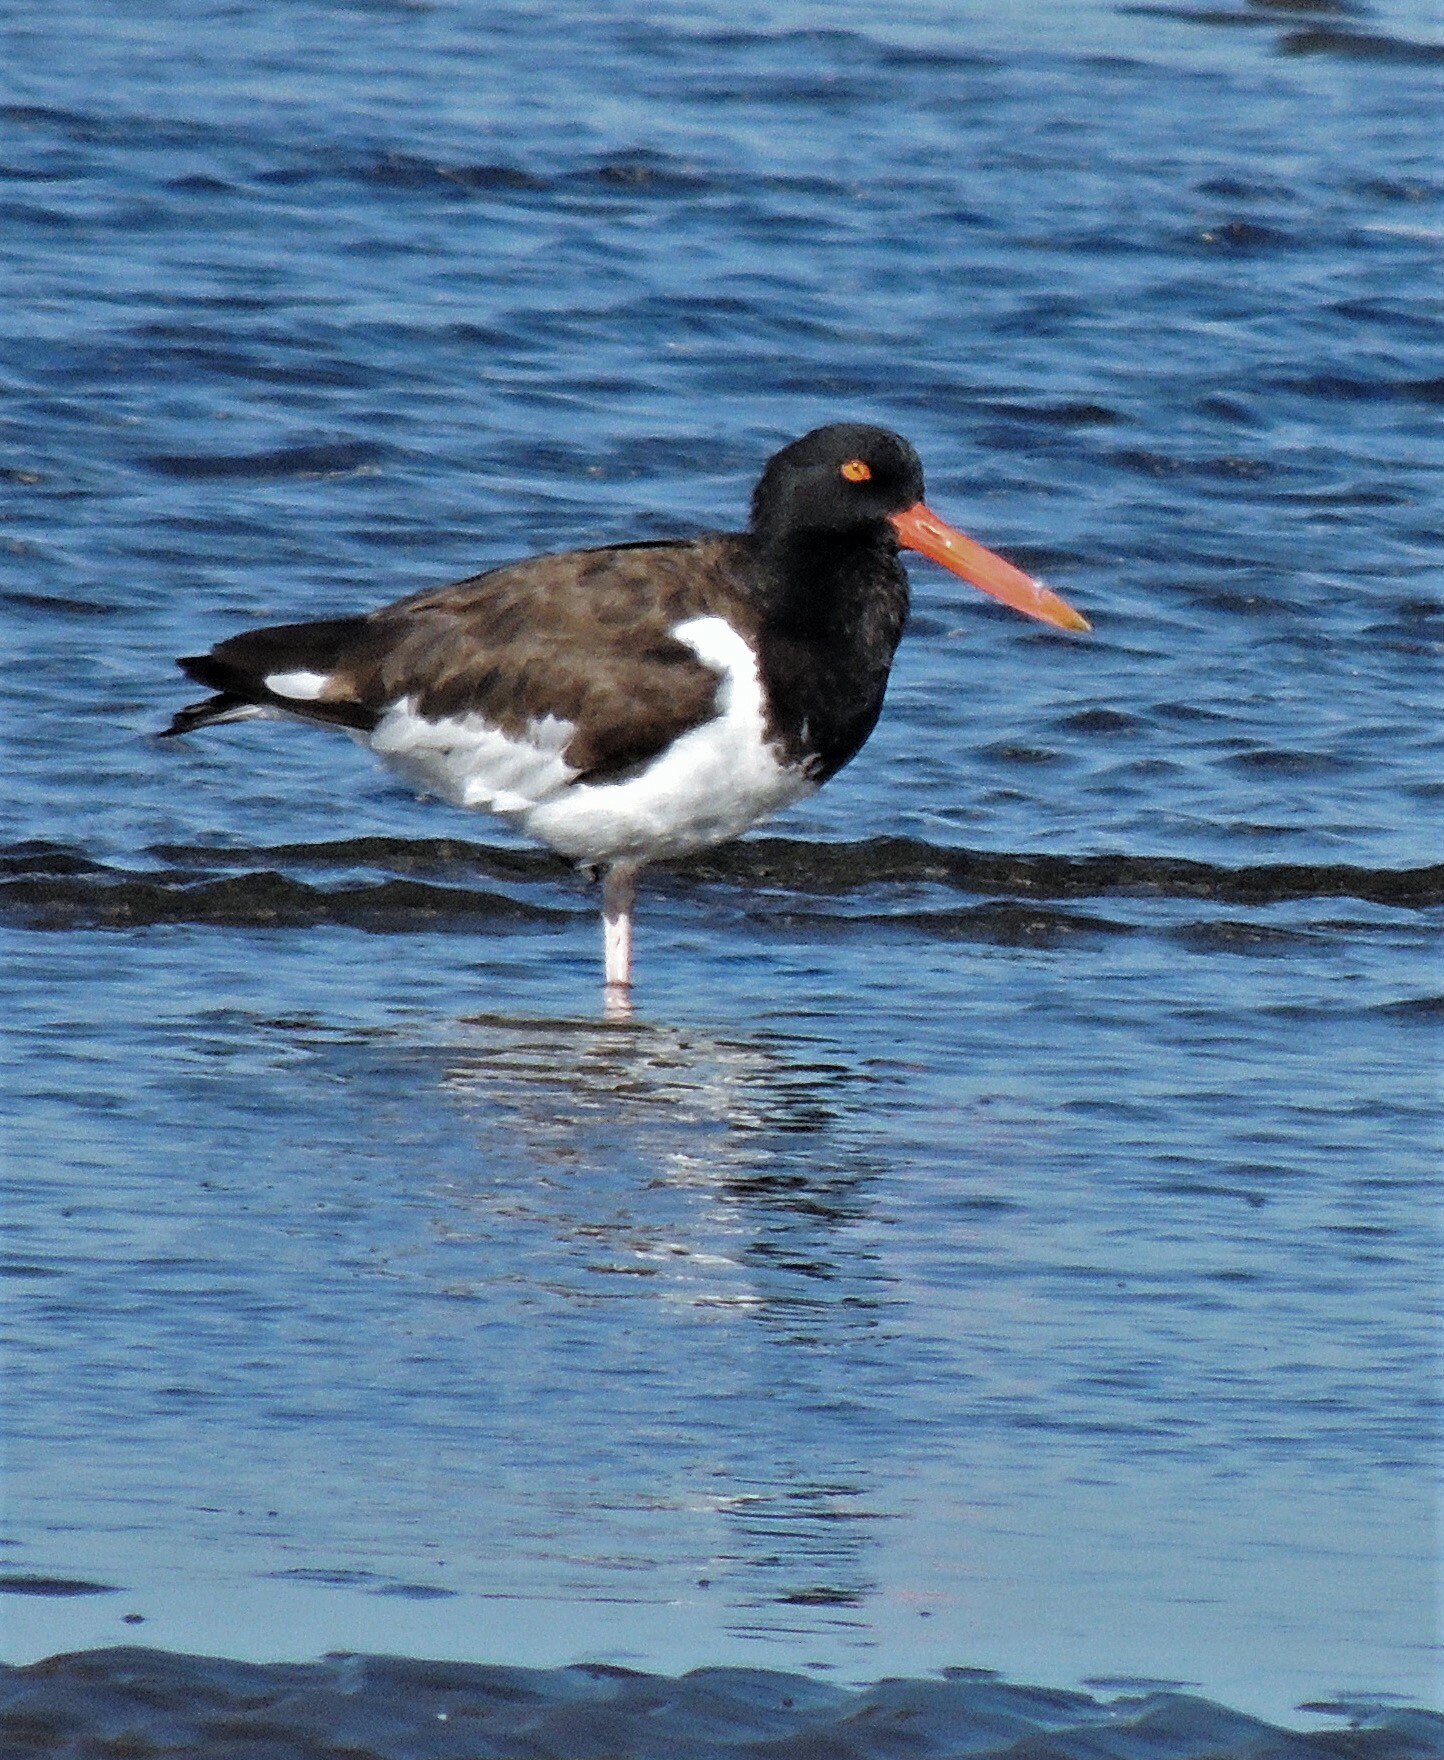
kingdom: Animalia
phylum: Chordata
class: Aves
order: Charadriiformes
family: Haematopodidae
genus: Haematopus
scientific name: Haematopus palliatus
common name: American oystercatcher
